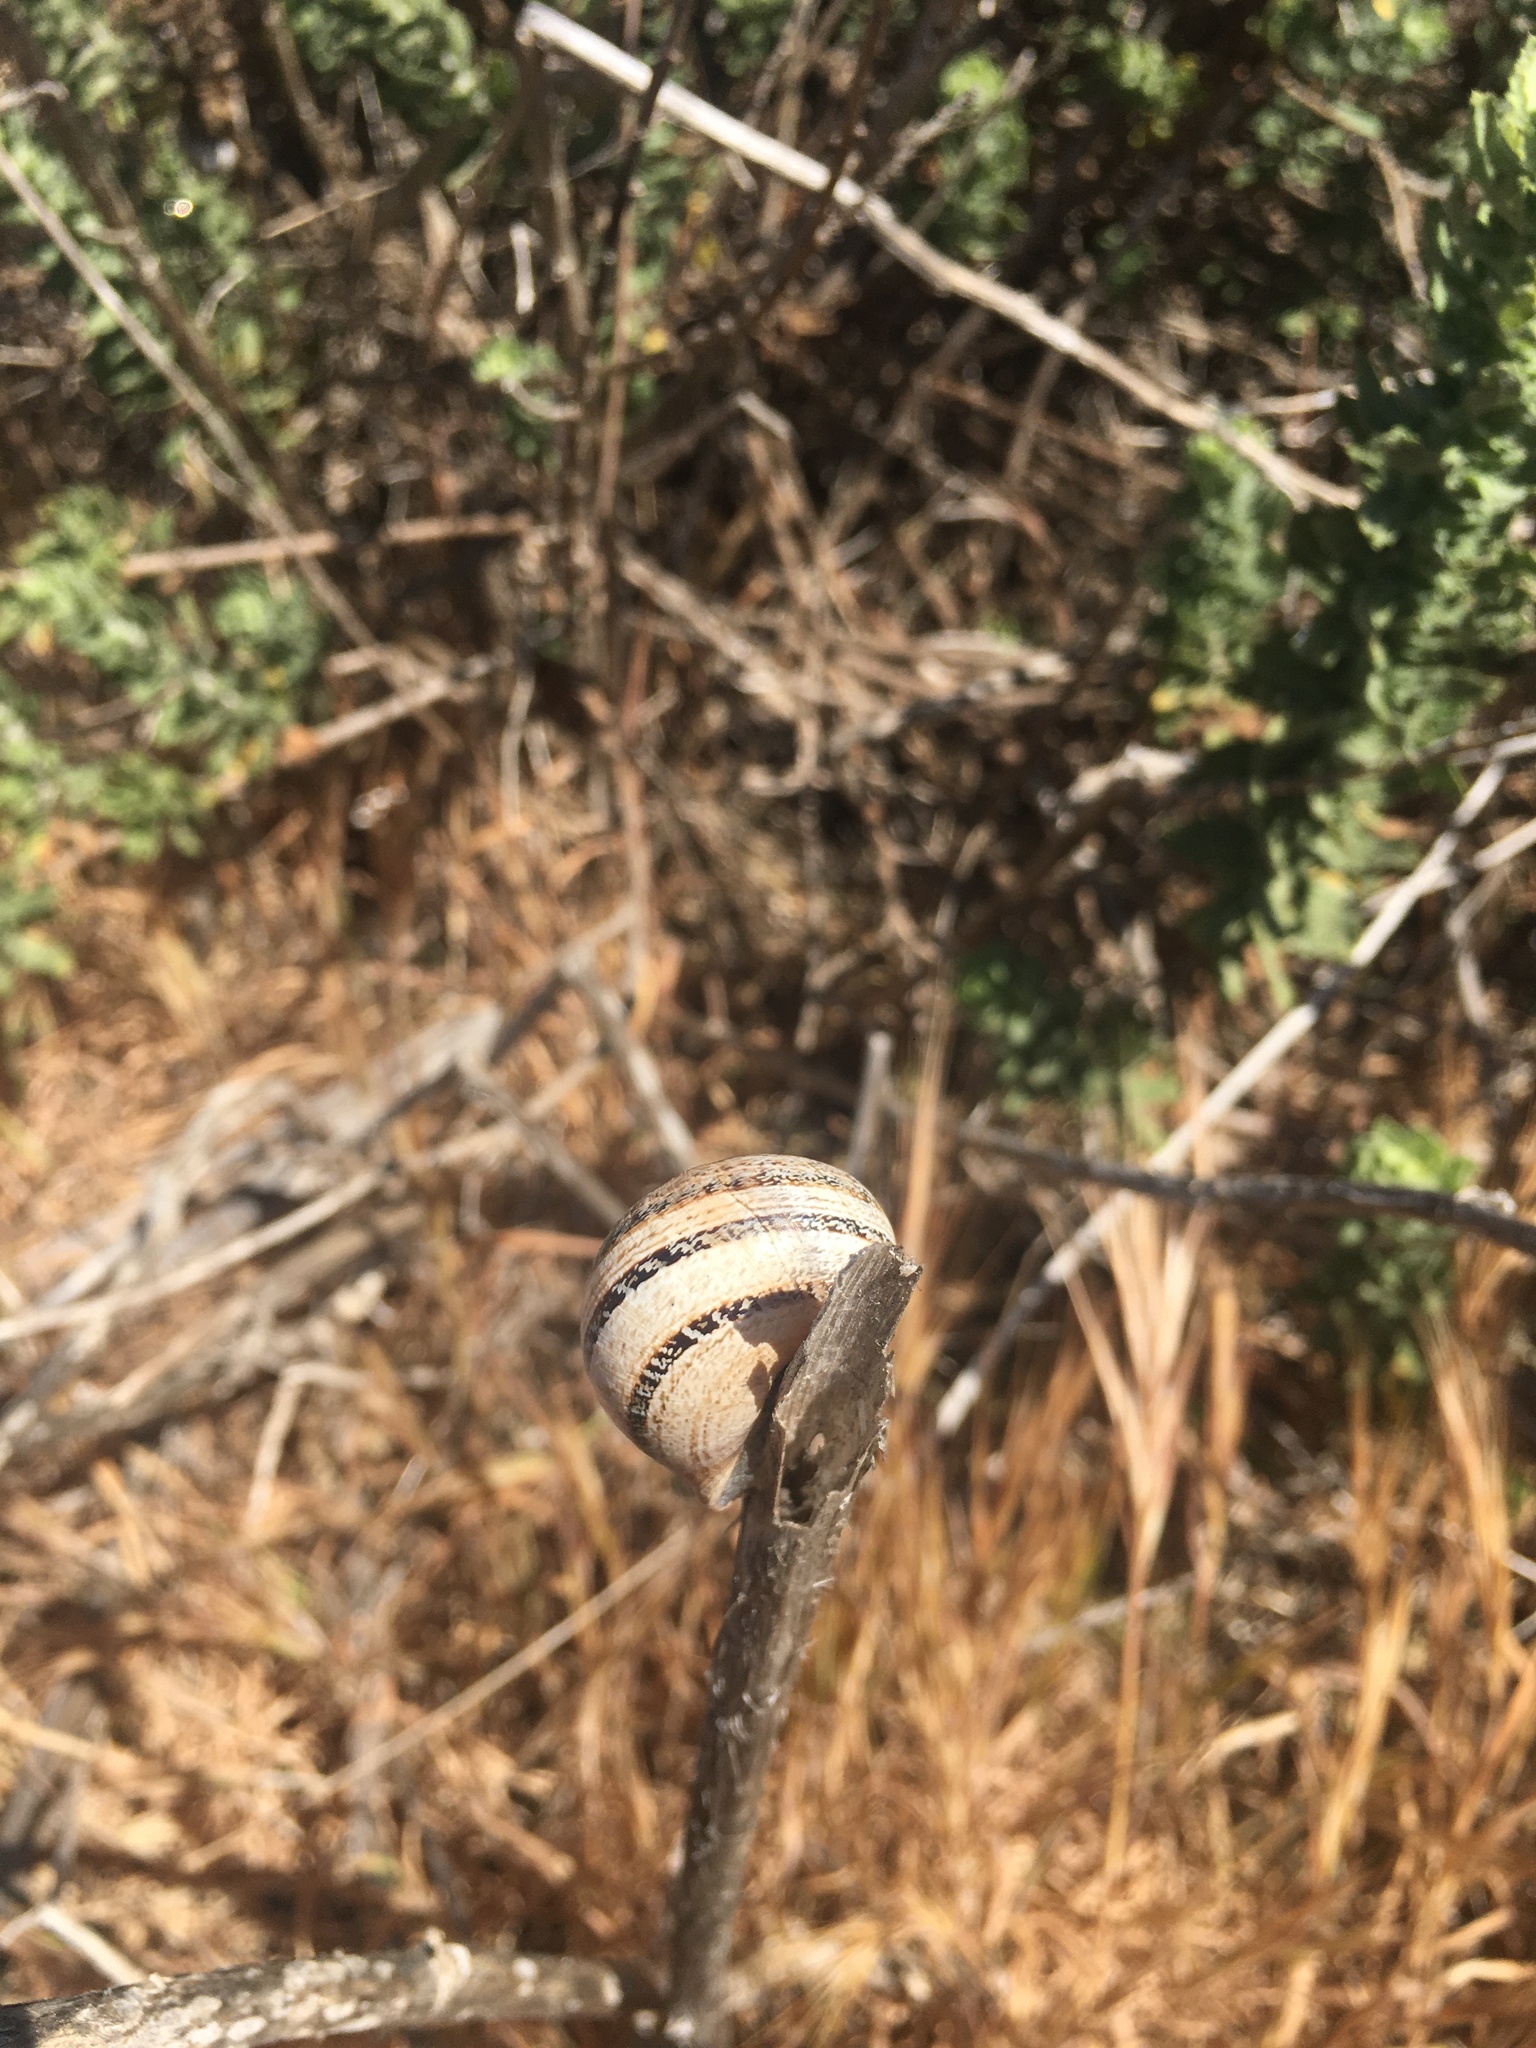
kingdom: Animalia
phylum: Mollusca
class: Gastropoda
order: Stylommatophora
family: Helicidae
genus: Otala
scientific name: Otala lactea
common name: Milk snail
